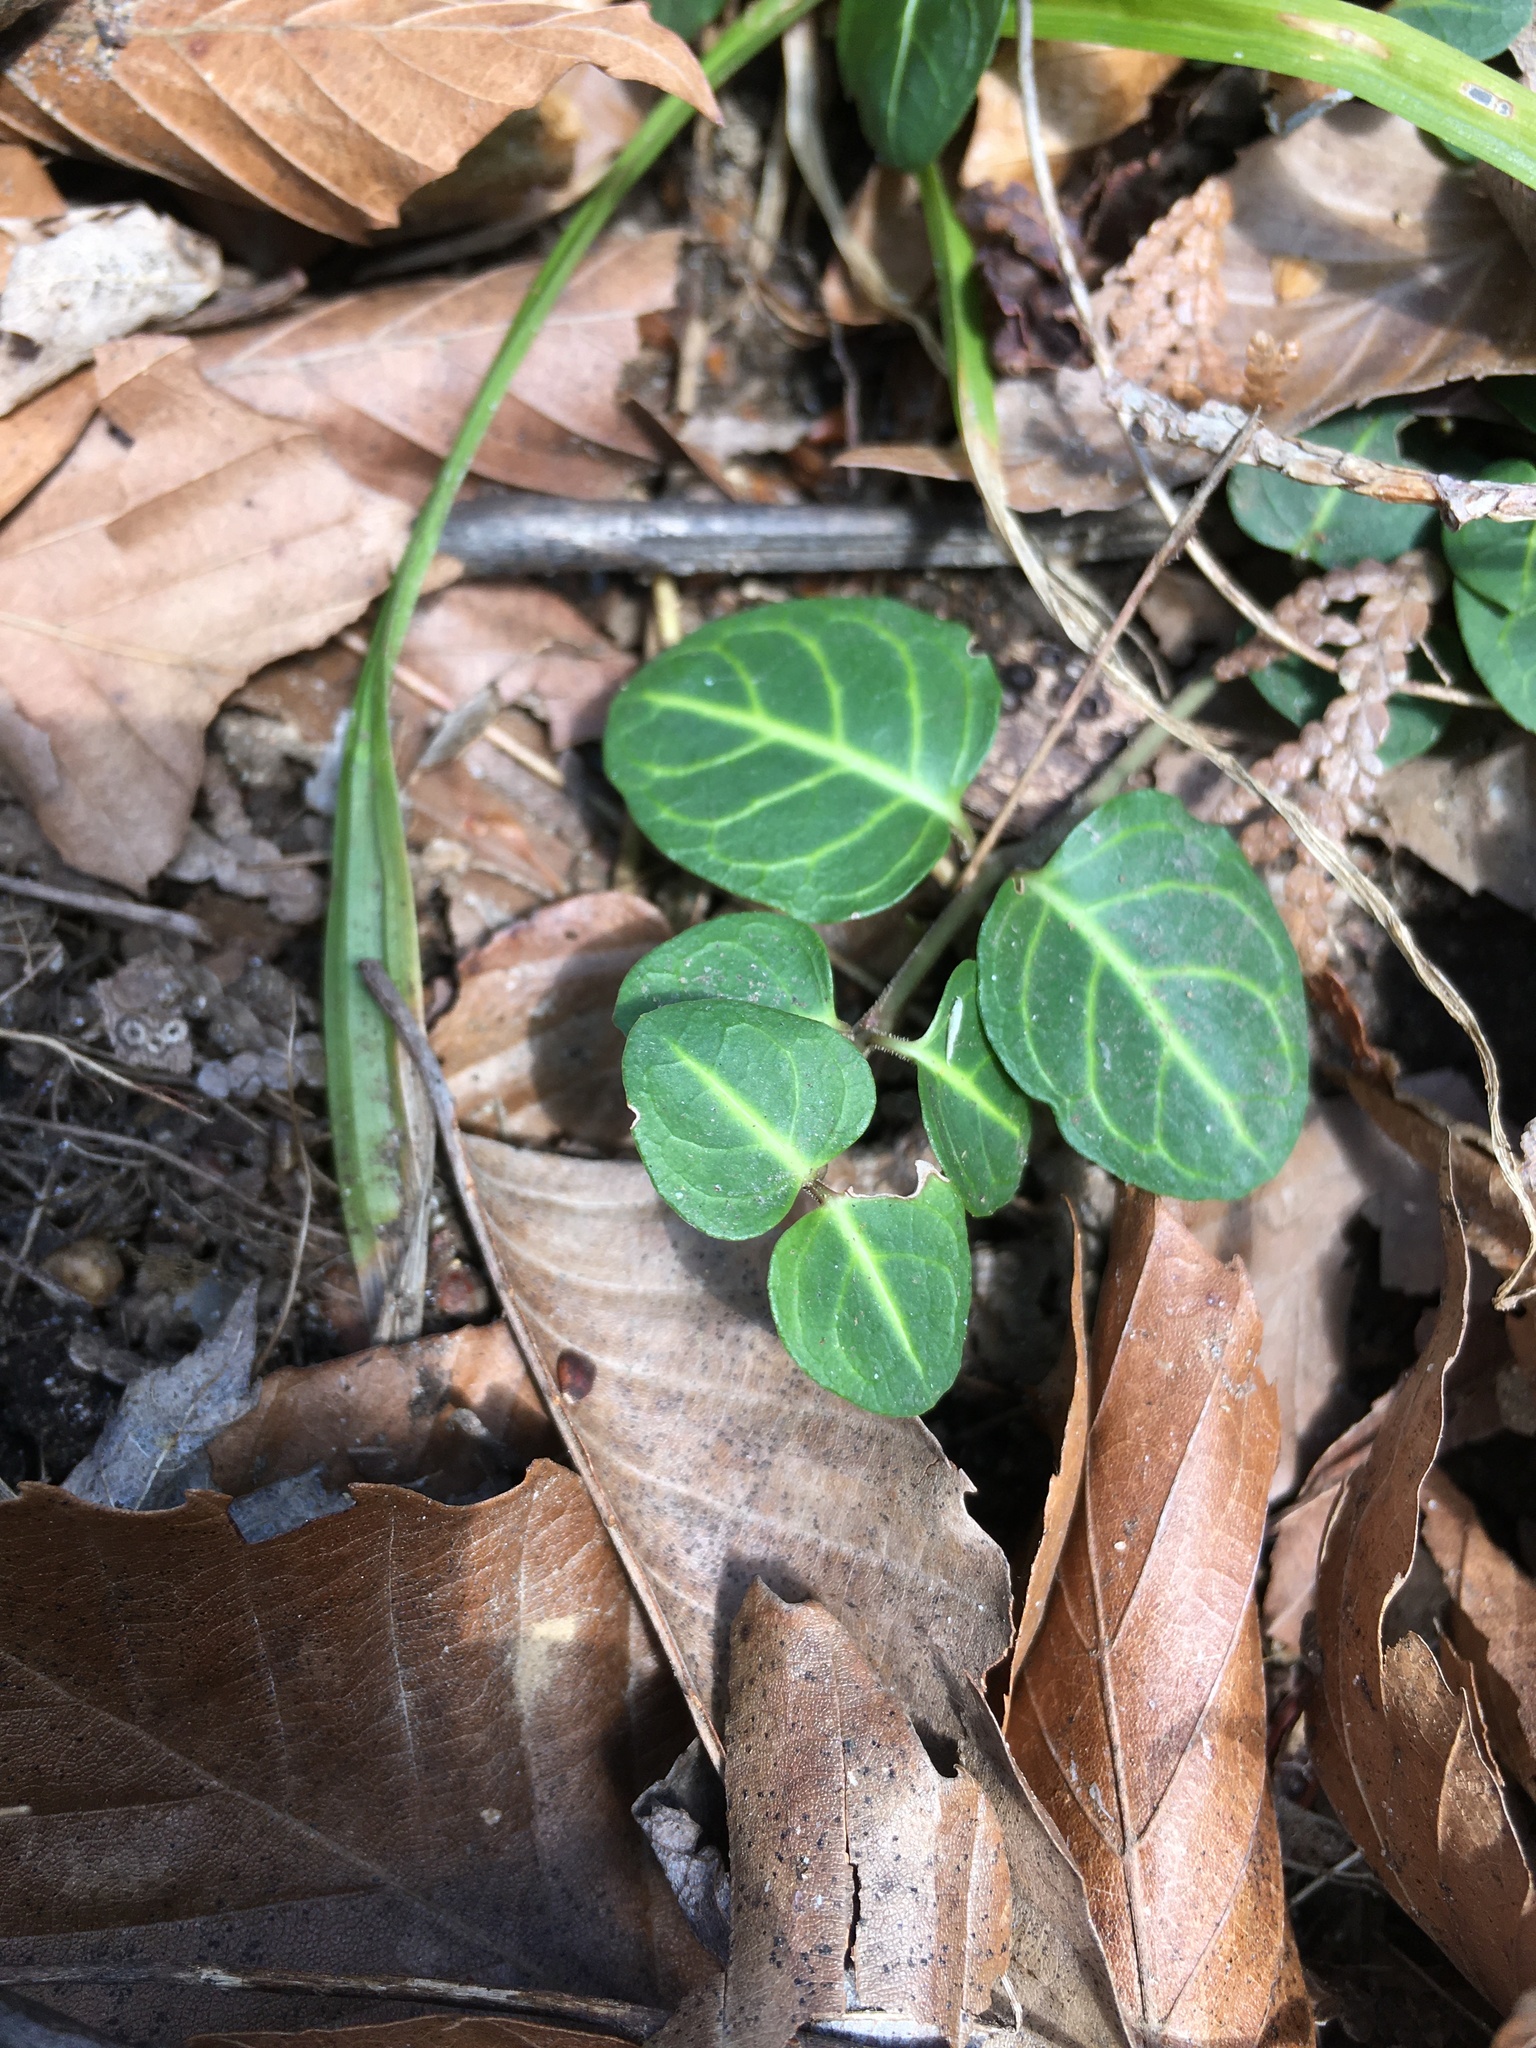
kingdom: Plantae
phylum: Tracheophyta
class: Magnoliopsida
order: Gentianales
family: Rubiaceae
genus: Mitchella
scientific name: Mitchella repens
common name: Partridge-berry
